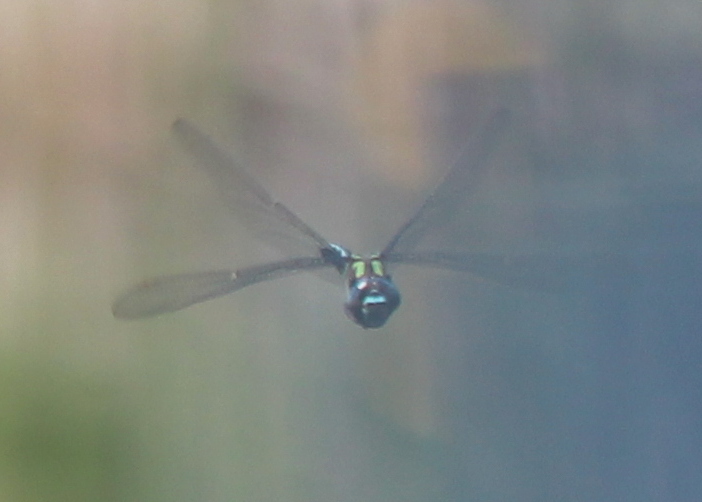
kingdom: Animalia
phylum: Arthropoda
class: Insecta
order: Odonata
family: Aeshnidae
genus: Nasiaeschna
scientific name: Nasiaeschna pentacantha
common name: Cyrano darner
